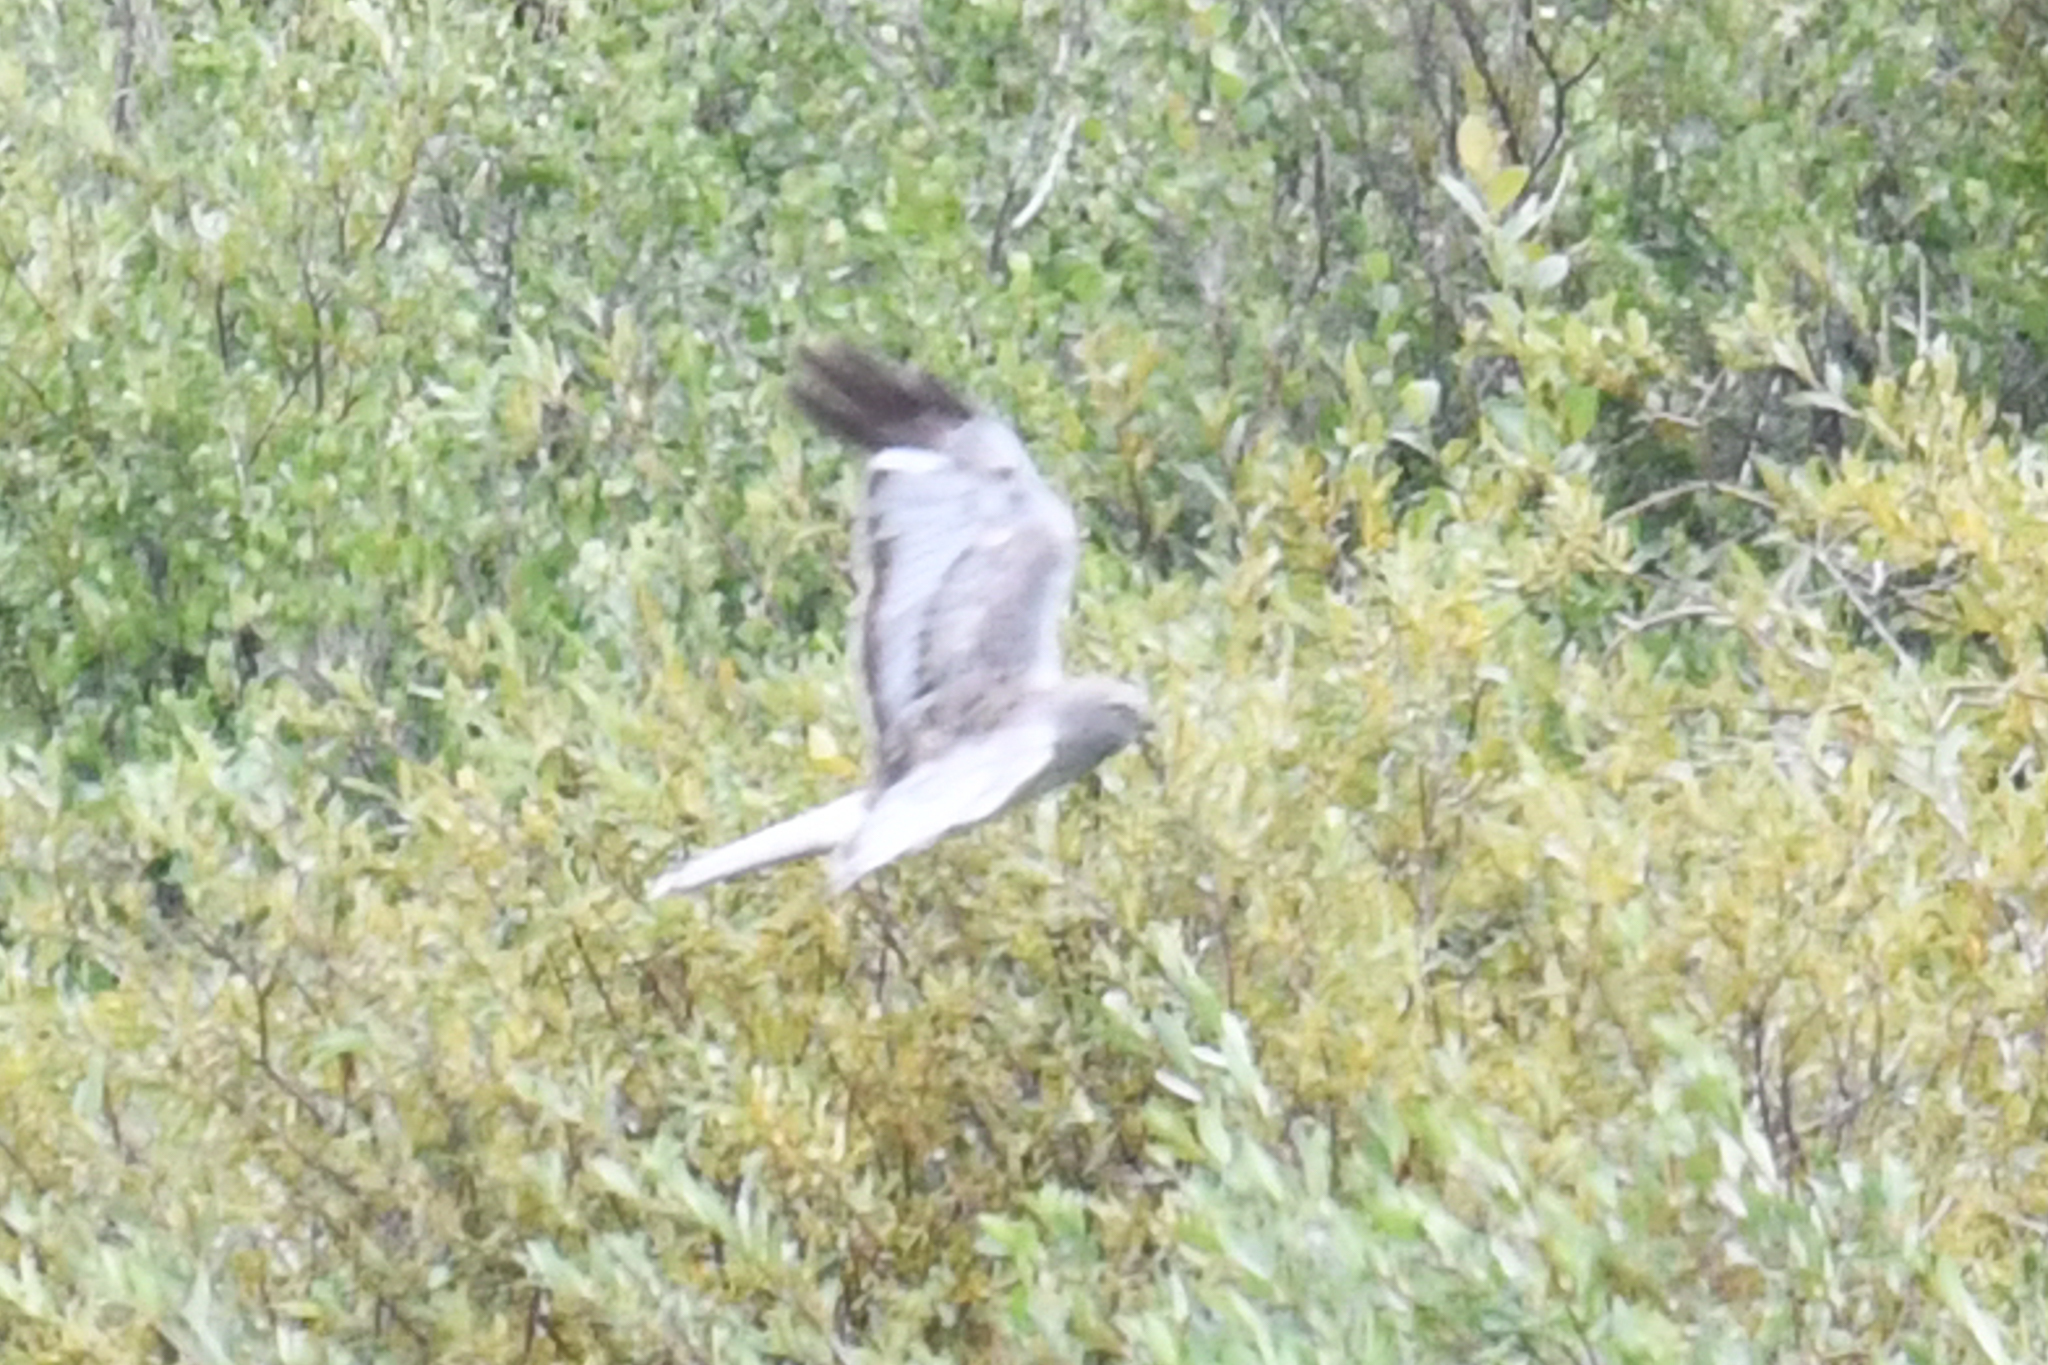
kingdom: Animalia
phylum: Chordata
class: Aves
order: Accipitriformes
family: Accipitridae
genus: Circus
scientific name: Circus cyaneus
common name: Hen harrier
